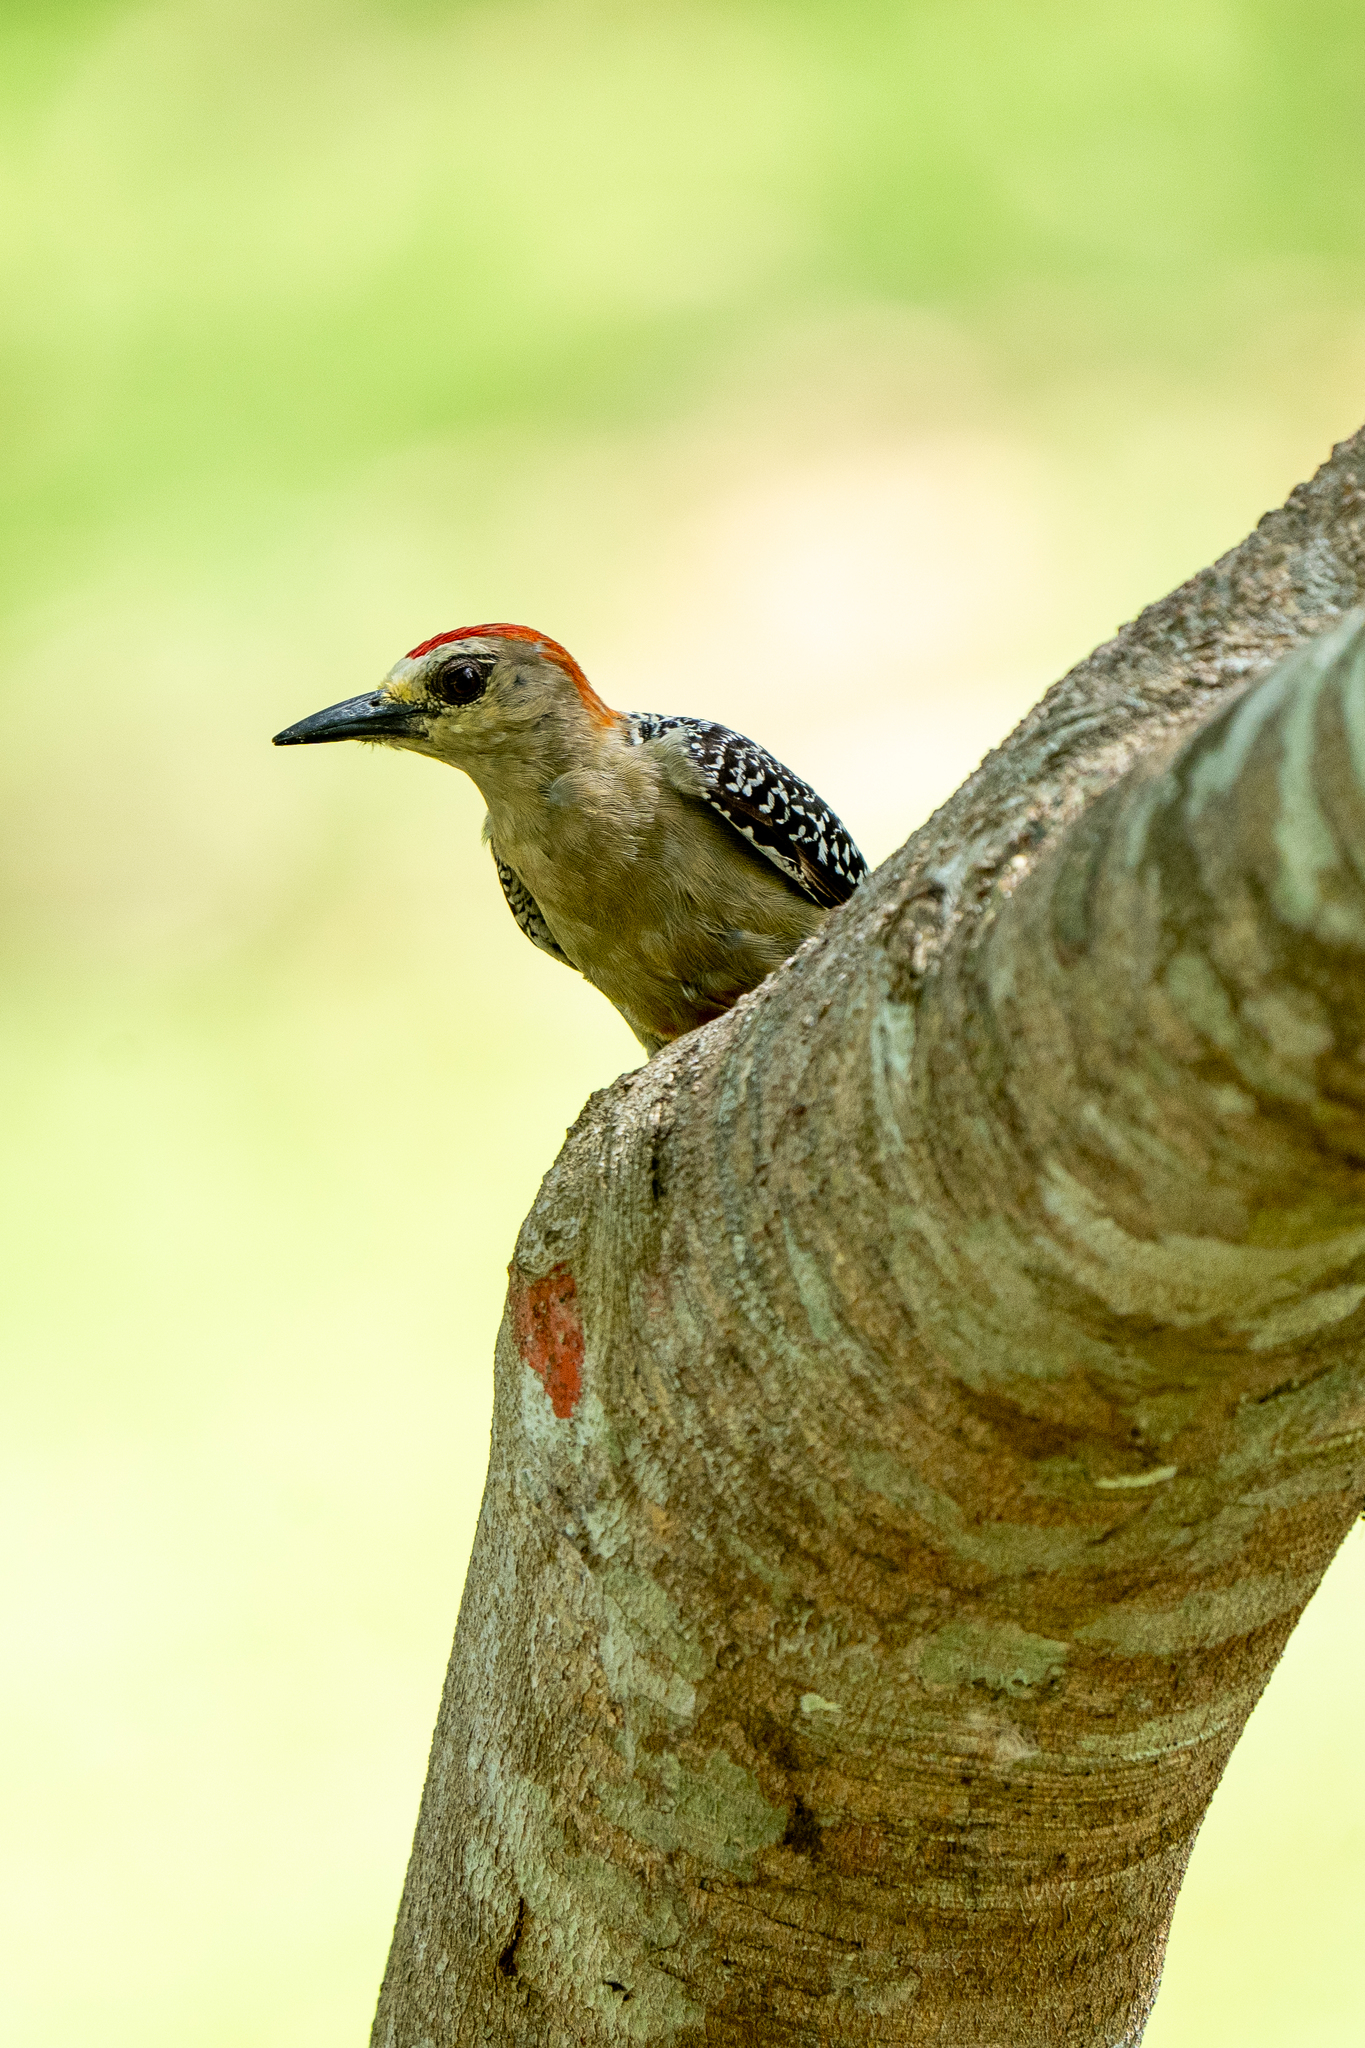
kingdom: Animalia
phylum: Chordata
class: Aves
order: Piciformes
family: Picidae
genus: Melanerpes
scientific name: Melanerpes rubricapillus
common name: Red-crowned woodpecker
